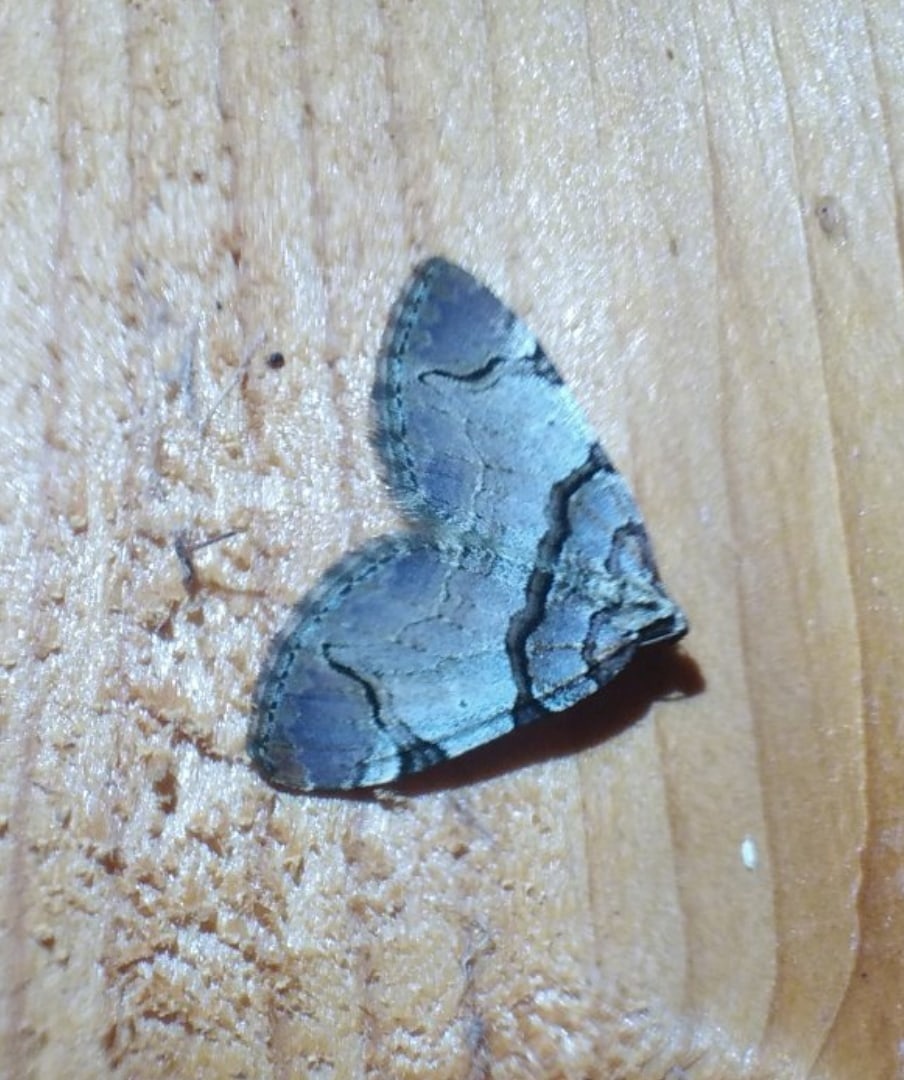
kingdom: Animalia
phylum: Arthropoda
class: Insecta
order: Lepidoptera
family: Geometridae
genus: Anticlea
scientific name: Anticlea derivata
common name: Streamer
